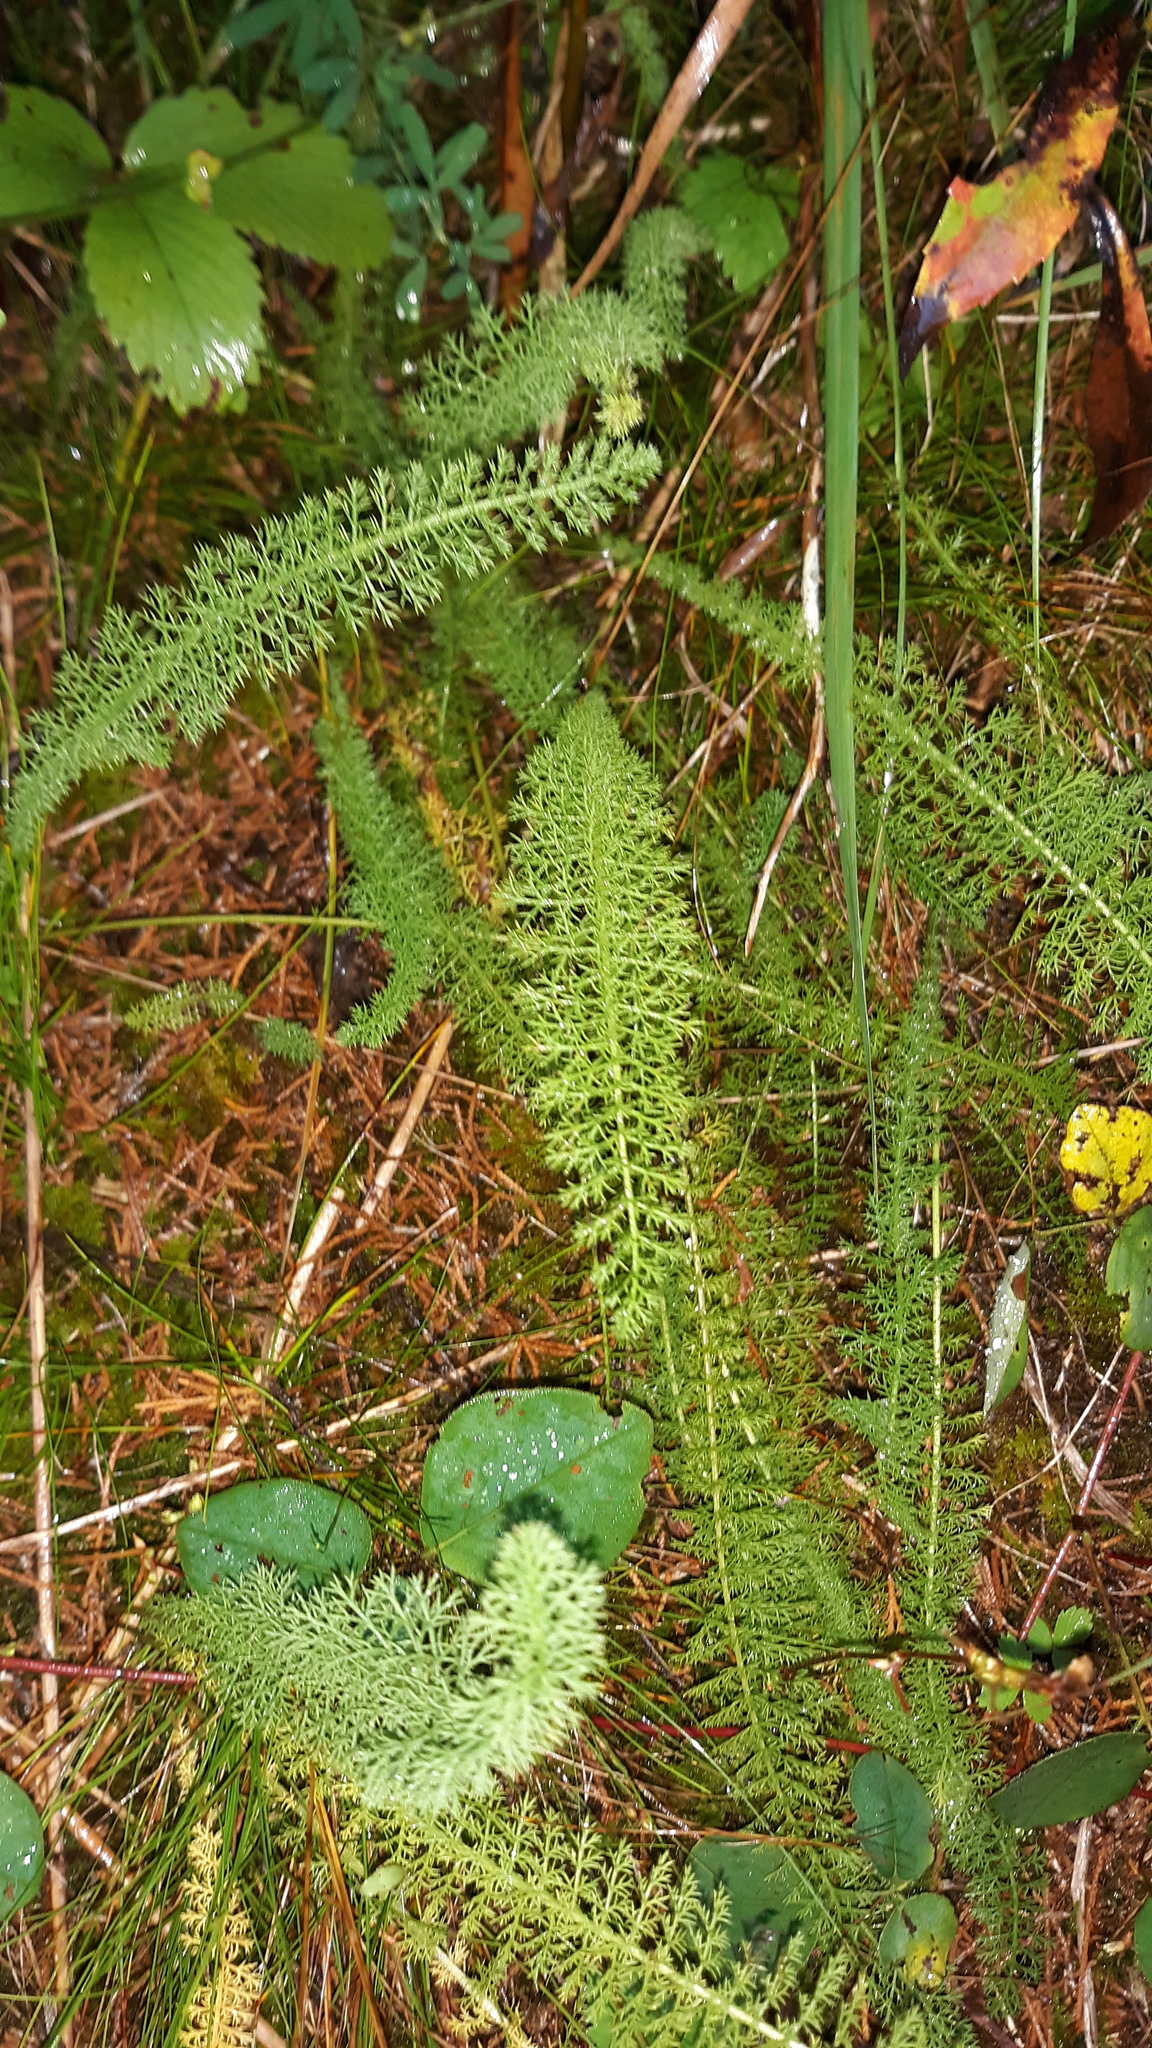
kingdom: Plantae
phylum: Tracheophyta
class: Magnoliopsida
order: Asterales
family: Asteraceae
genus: Achillea
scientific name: Achillea millefolium
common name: Yarrow
